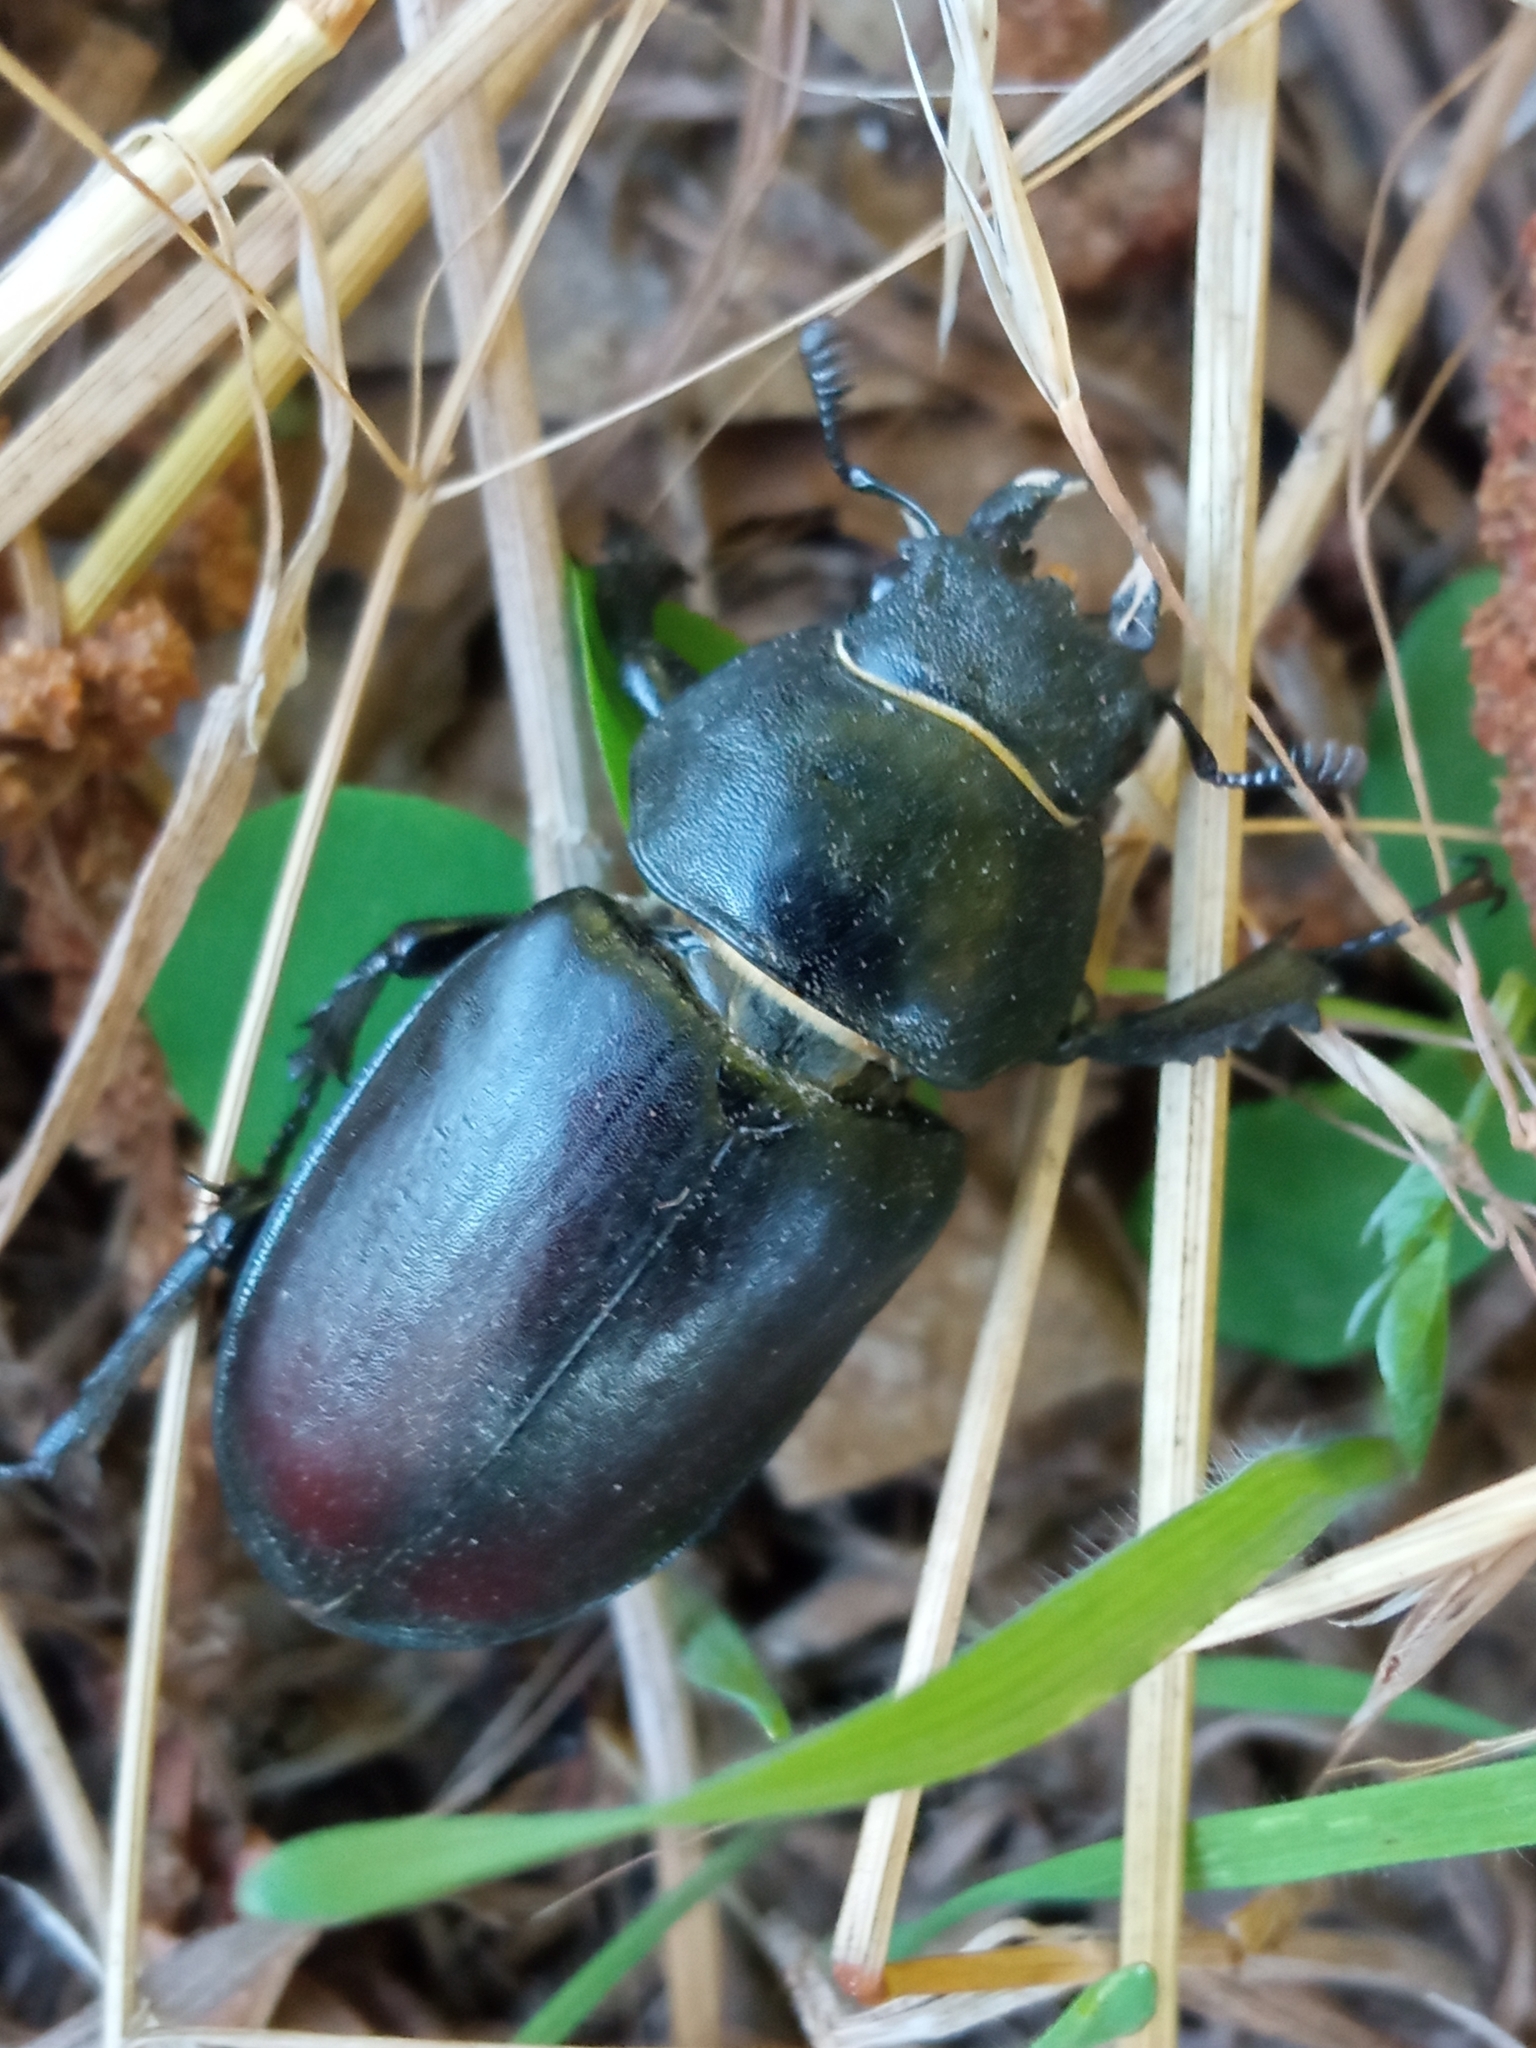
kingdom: Animalia
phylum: Arthropoda
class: Insecta
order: Coleoptera
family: Lucanidae
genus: Lucanus
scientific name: Lucanus cervus
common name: Stag beetle
